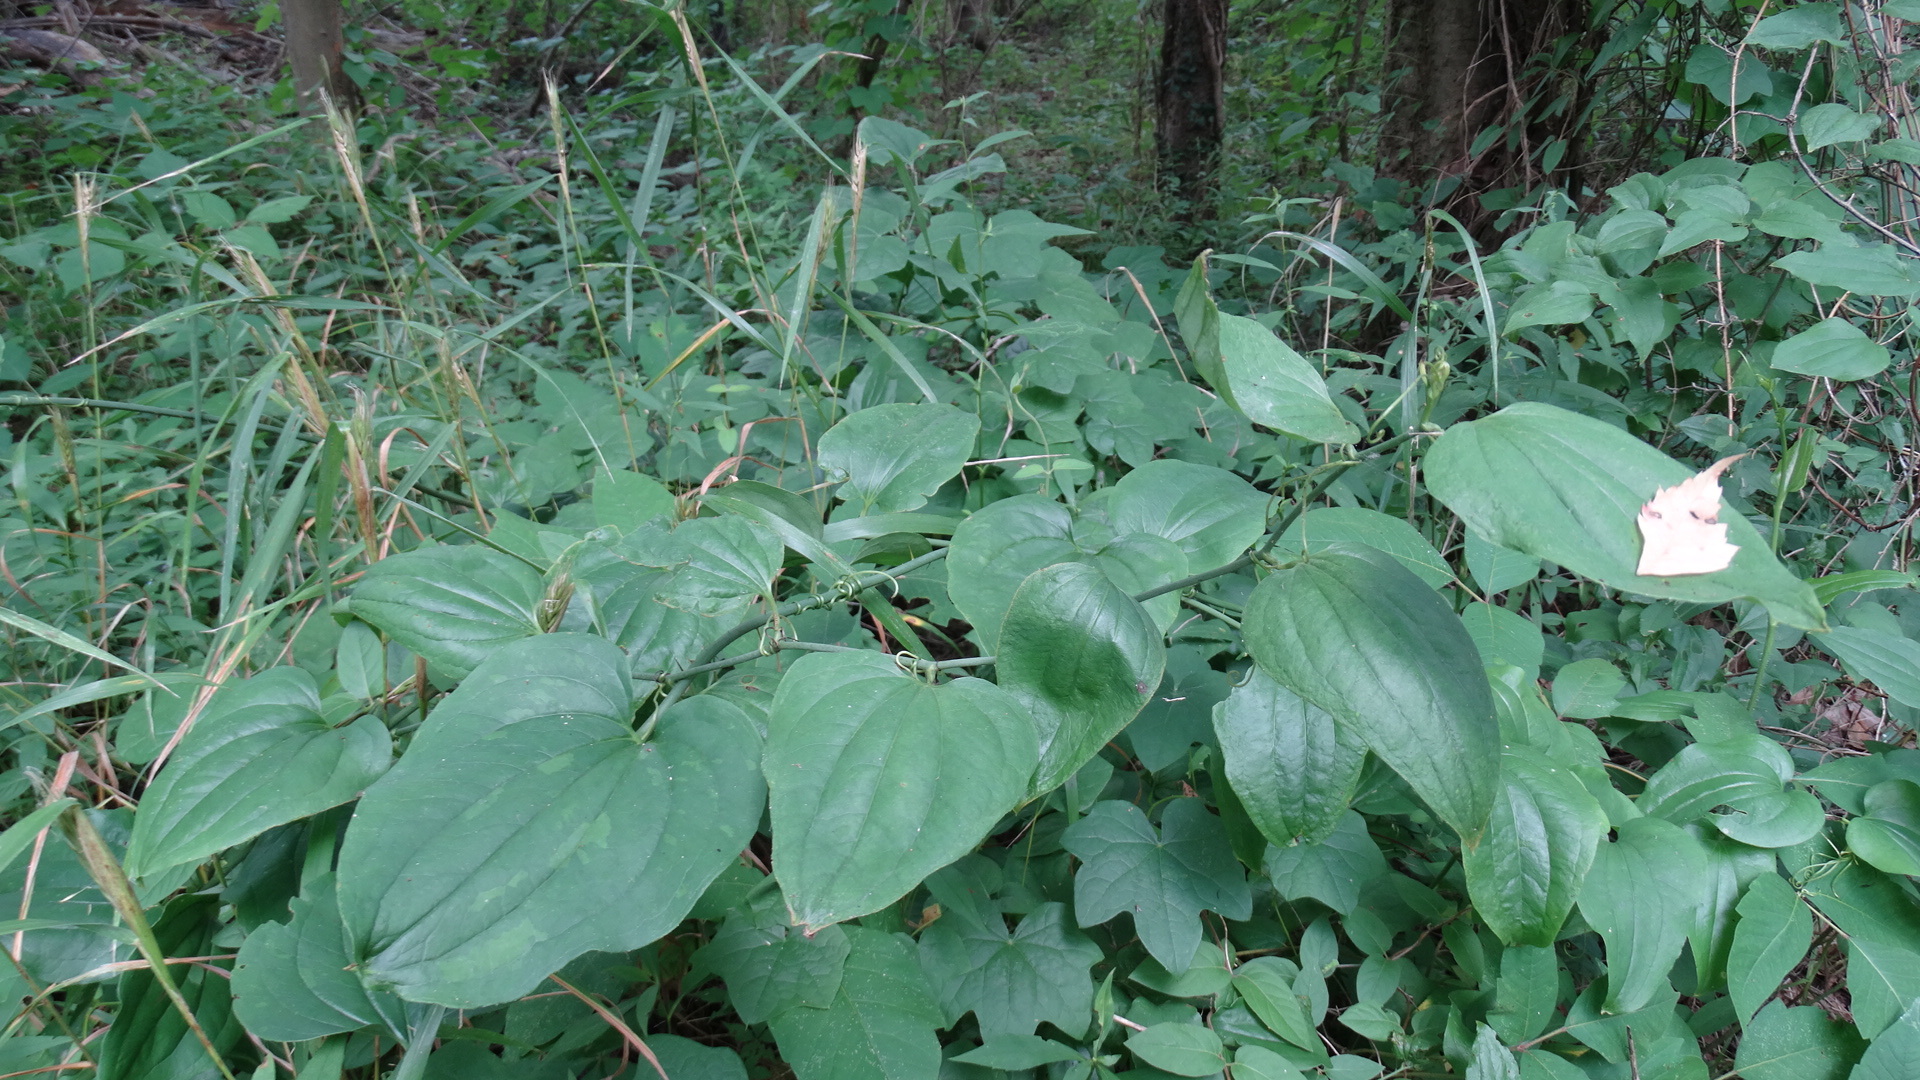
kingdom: Plantae
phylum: Tracheophyta
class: Liliopsida
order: Liliales
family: Smilacaceae
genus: Smilax
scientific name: Smilax tamnoides
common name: Hellfetter
